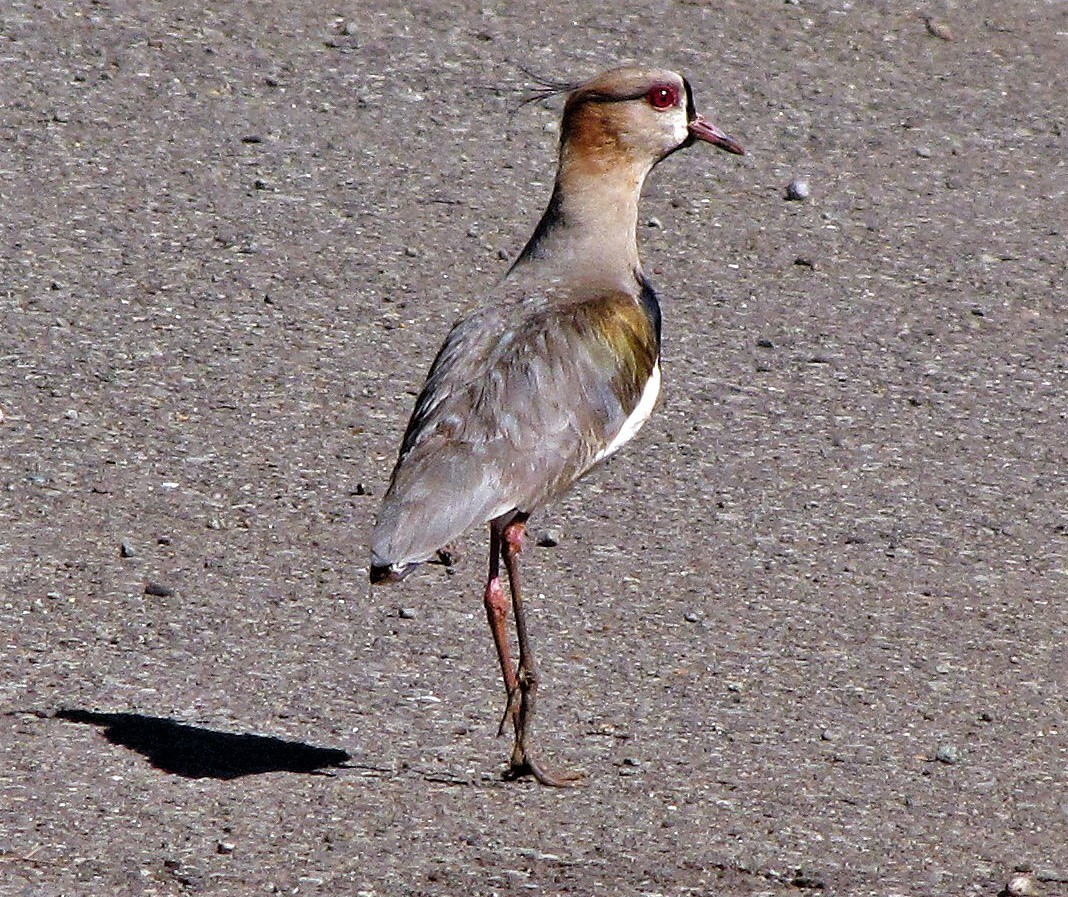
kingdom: Animalia
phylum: Chordata
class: Aves
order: Charadriiformes
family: Charadriidae
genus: Vanellus
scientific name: Vanellus chilensis
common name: Southern lapwing
